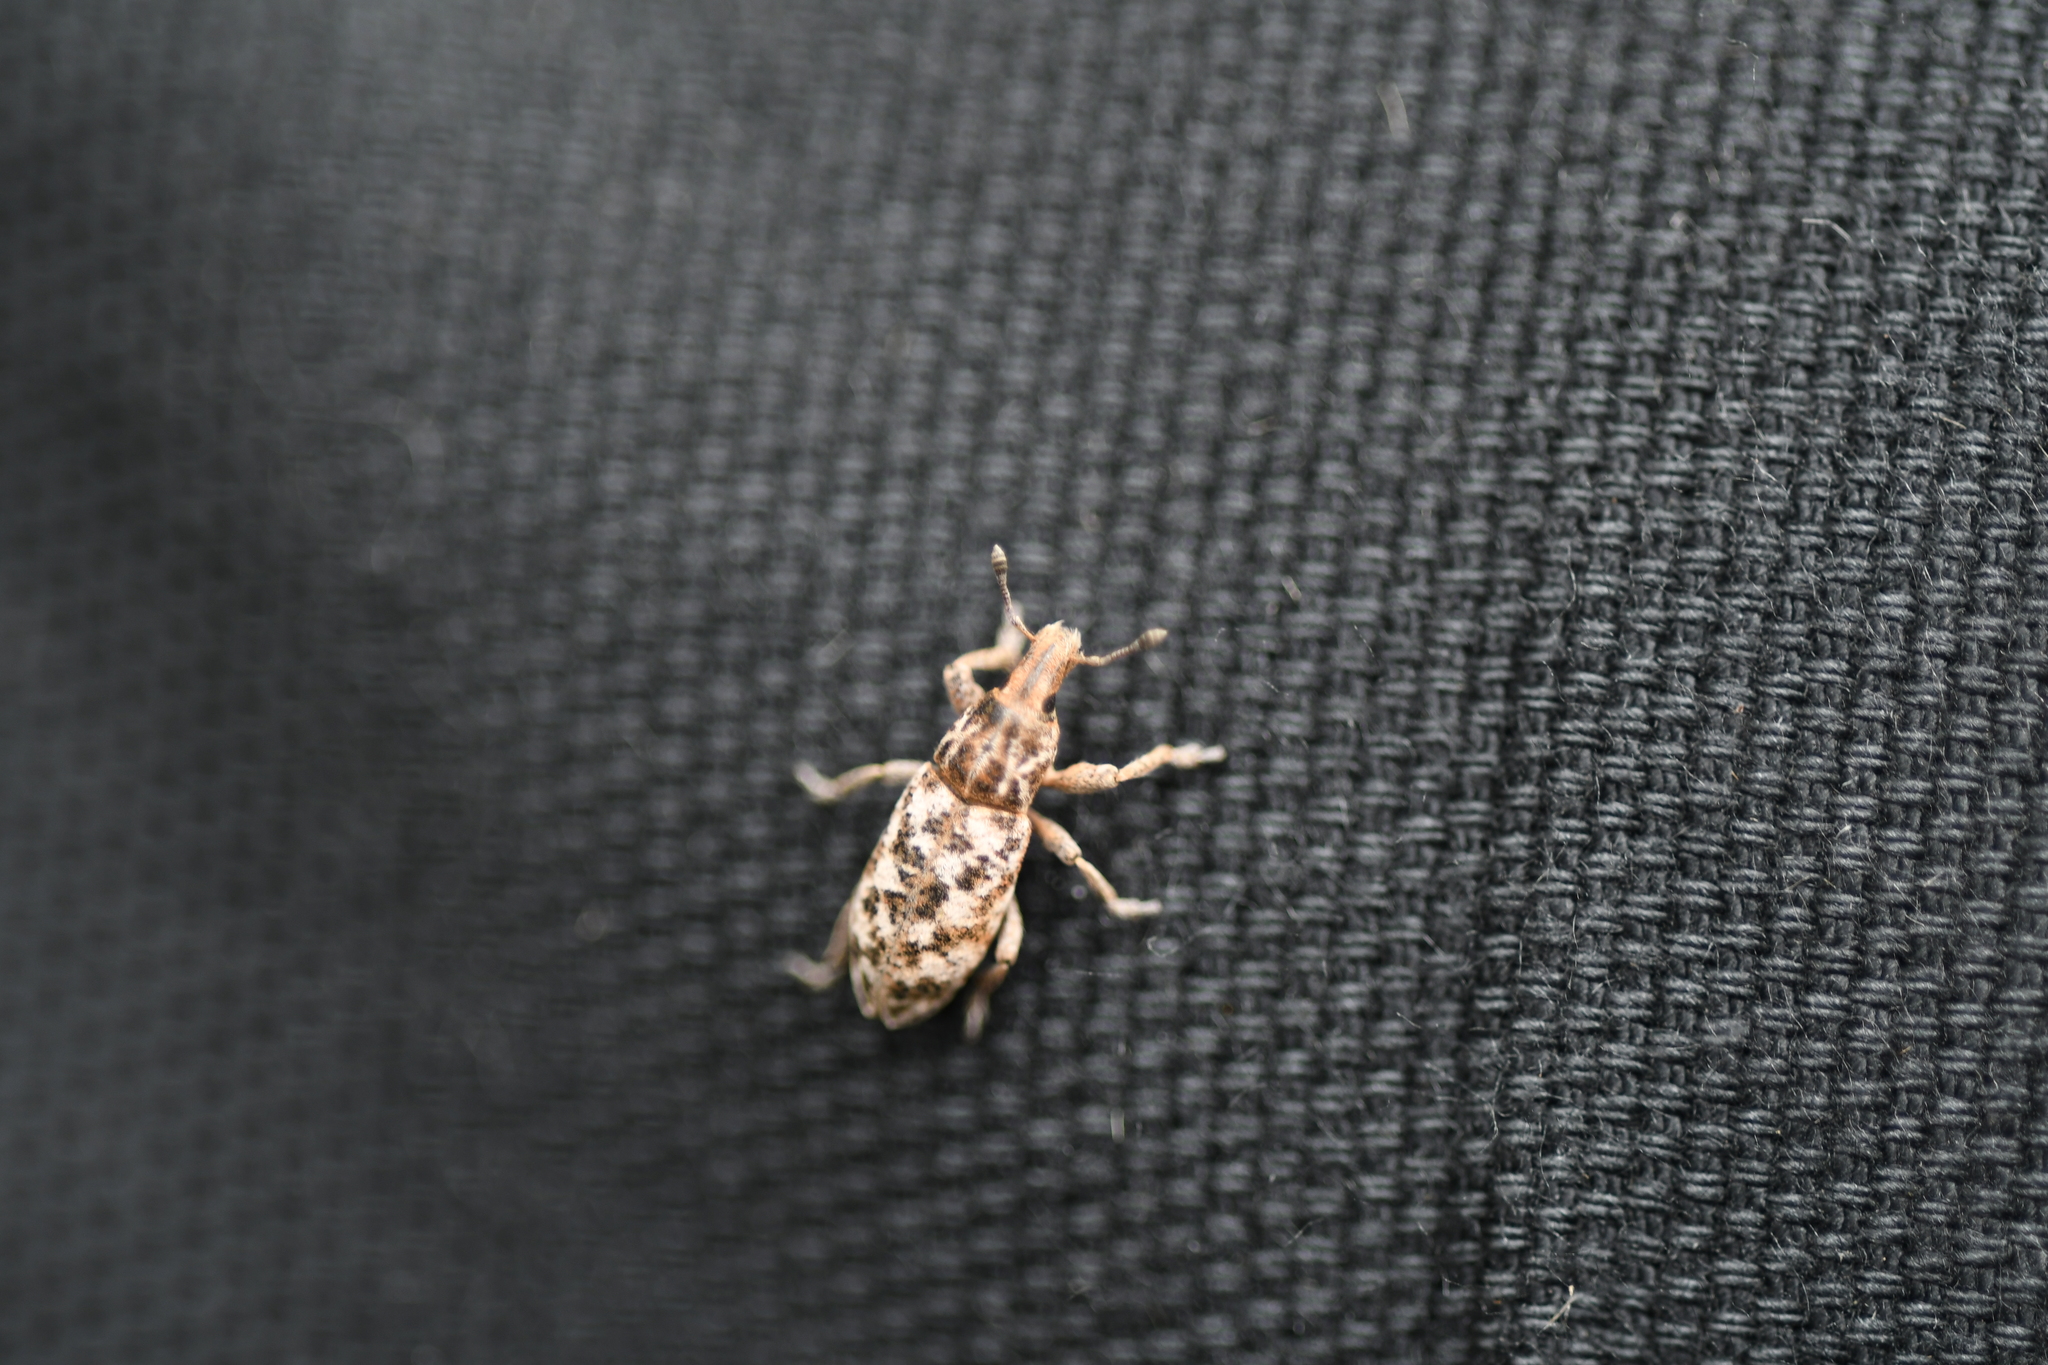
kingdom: Animalia
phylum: Arthropoda
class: Insecta
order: Coleoptera
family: Curculionidae
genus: Cyphocleonus
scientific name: Cyphocleonus dealbatus
